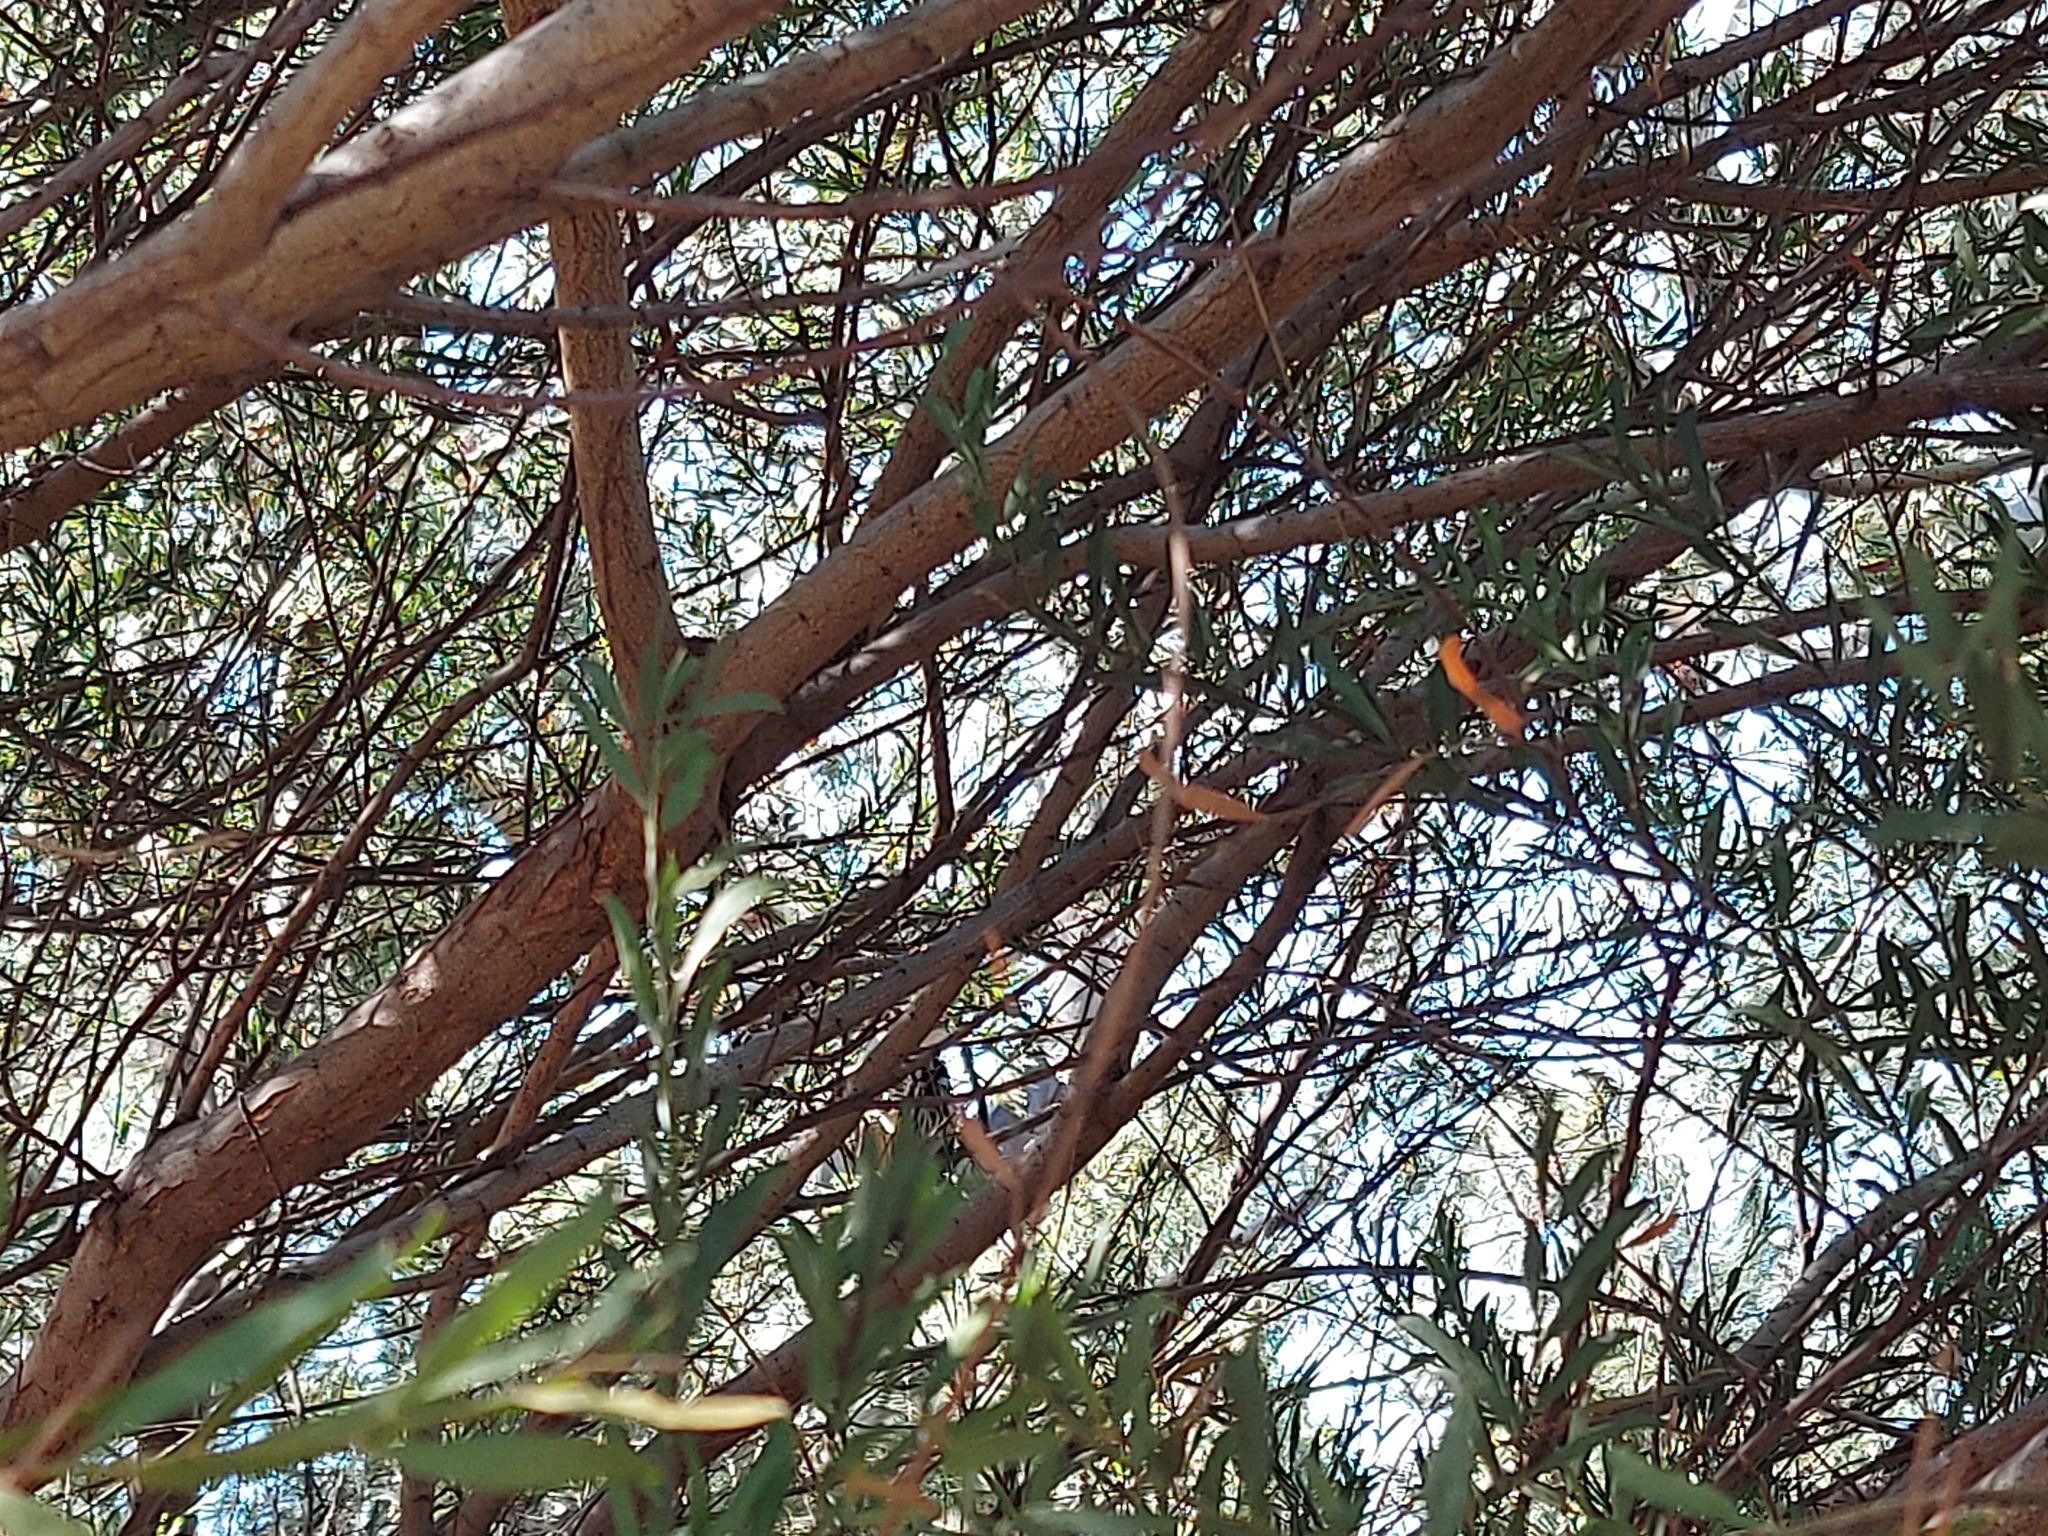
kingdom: Animalia
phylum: Chordata
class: Aves
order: Passeriformes
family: Meliphagidae
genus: Phylidonyris
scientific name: Phylidonyris novaehollandiae
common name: New holland honeyeater
